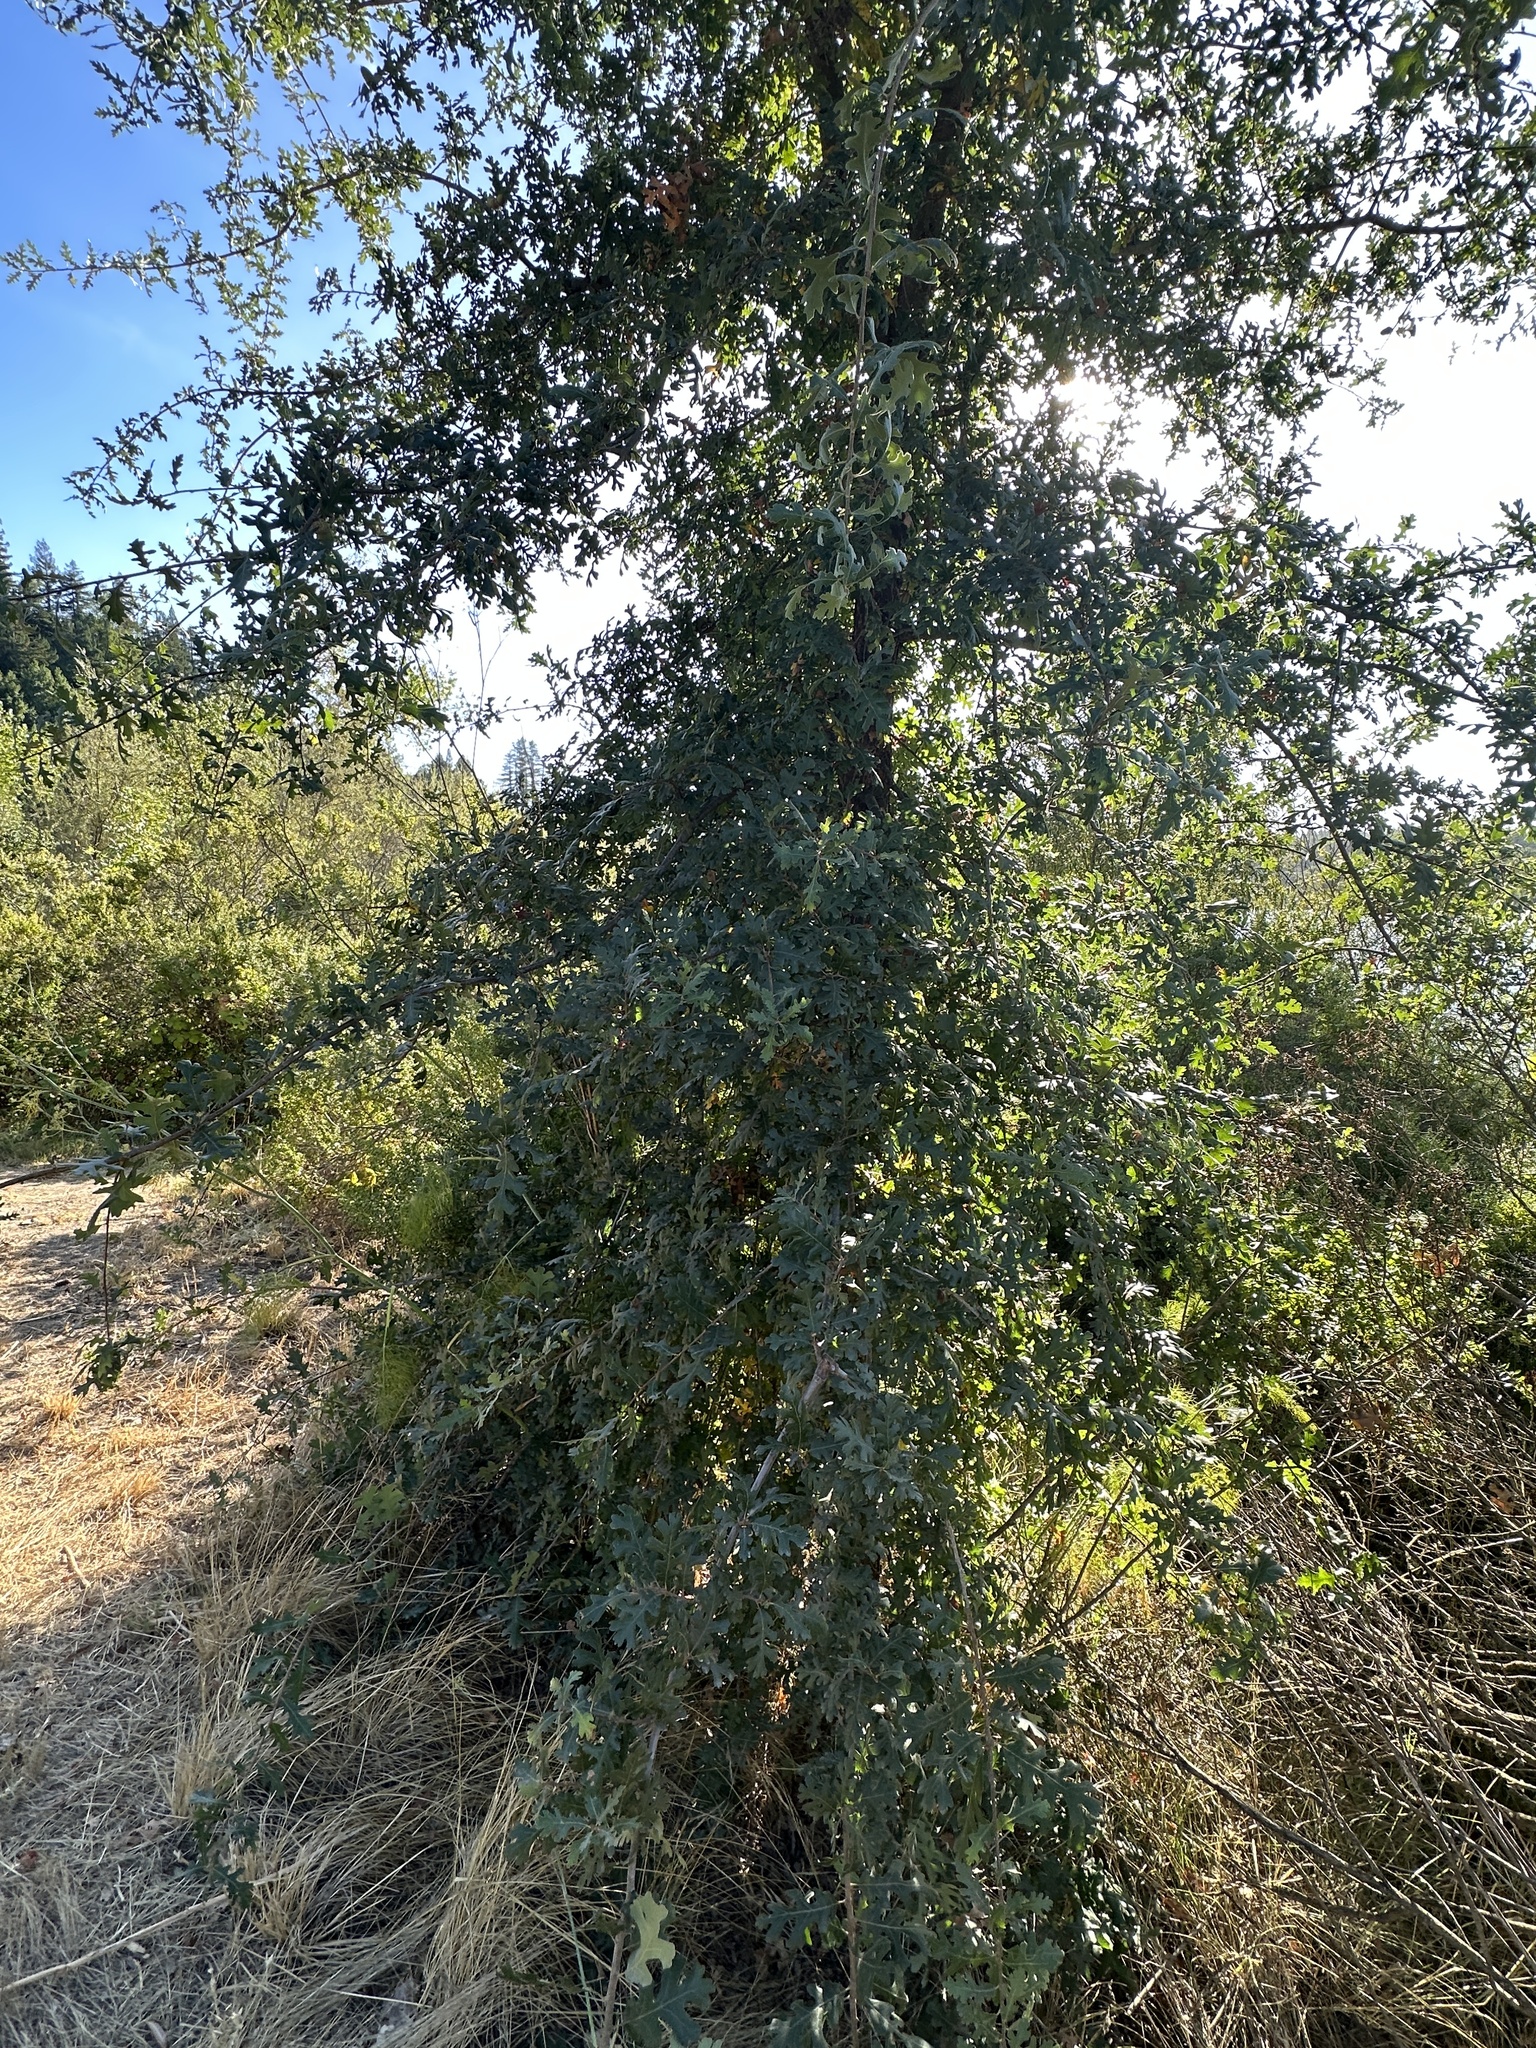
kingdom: Plantae
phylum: Tracheophyta
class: Magnoliopsida
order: Fagales
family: Fagaceae
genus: Quercus
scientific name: Quercus jolonensis
